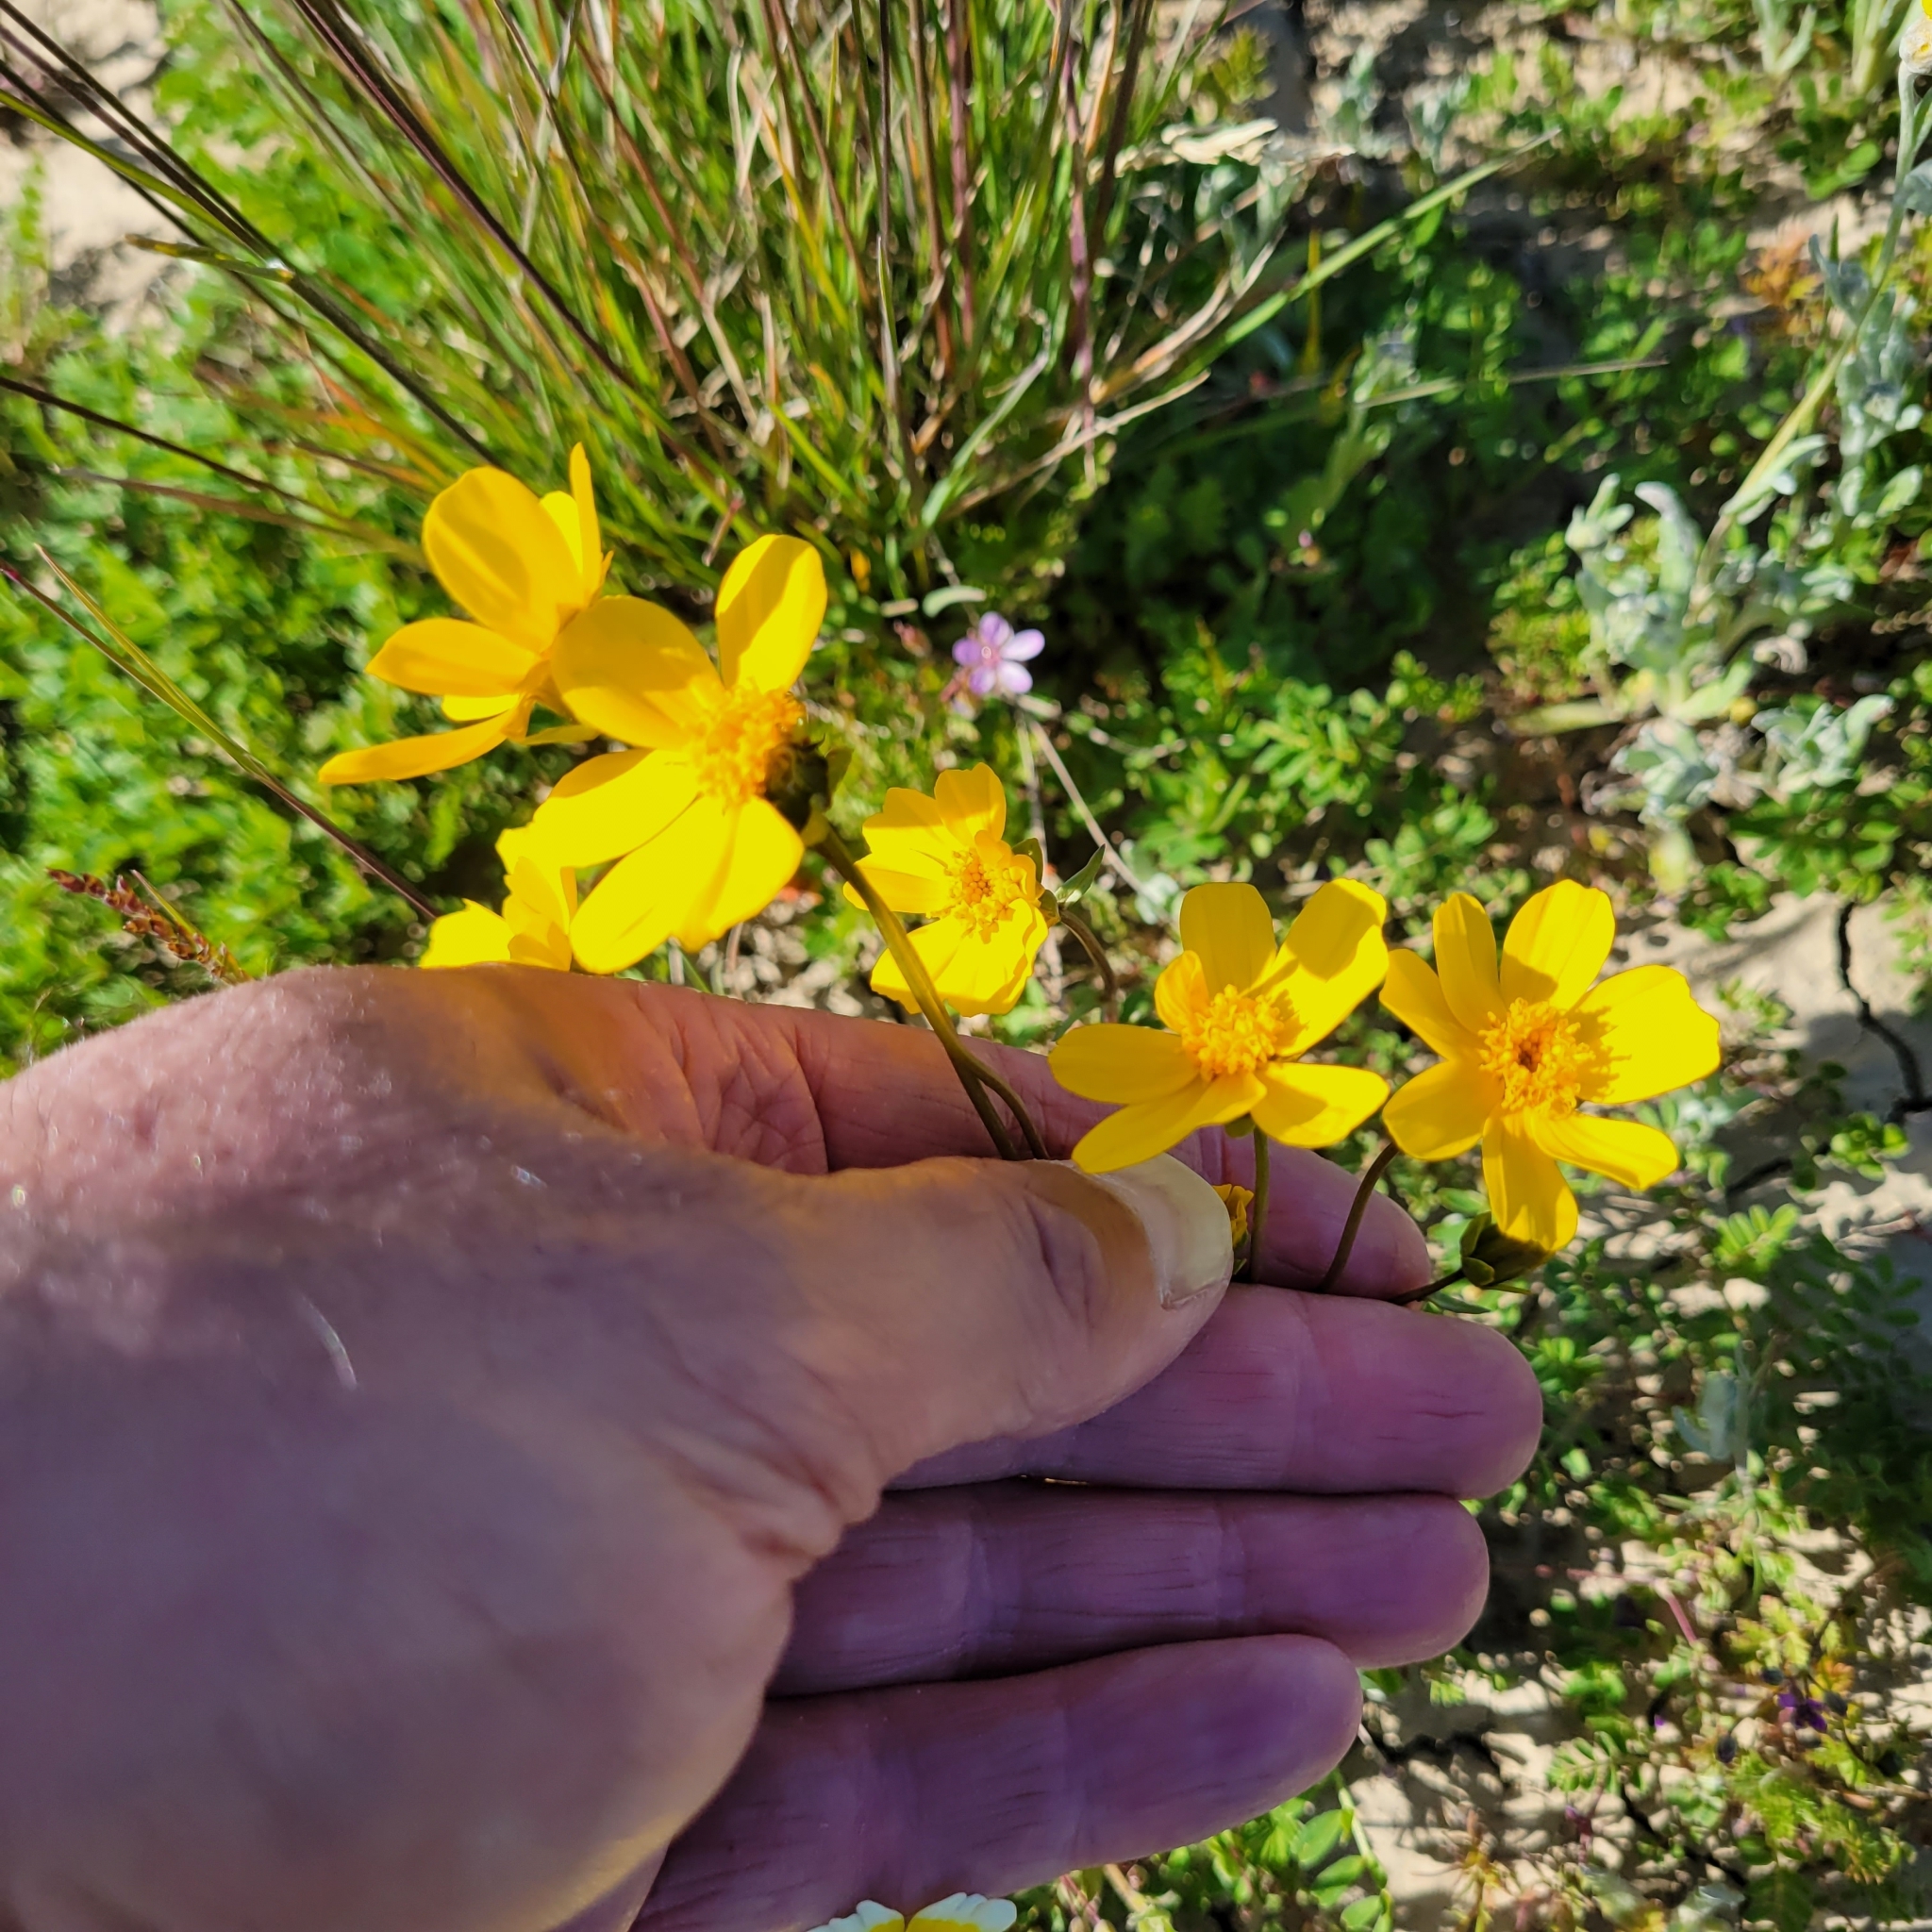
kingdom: Plantae
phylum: Tracheophyta
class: Magnoliopsida
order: Asterales
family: Asteraceae
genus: Coreopsis
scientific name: Coreopsis calliopsidea
